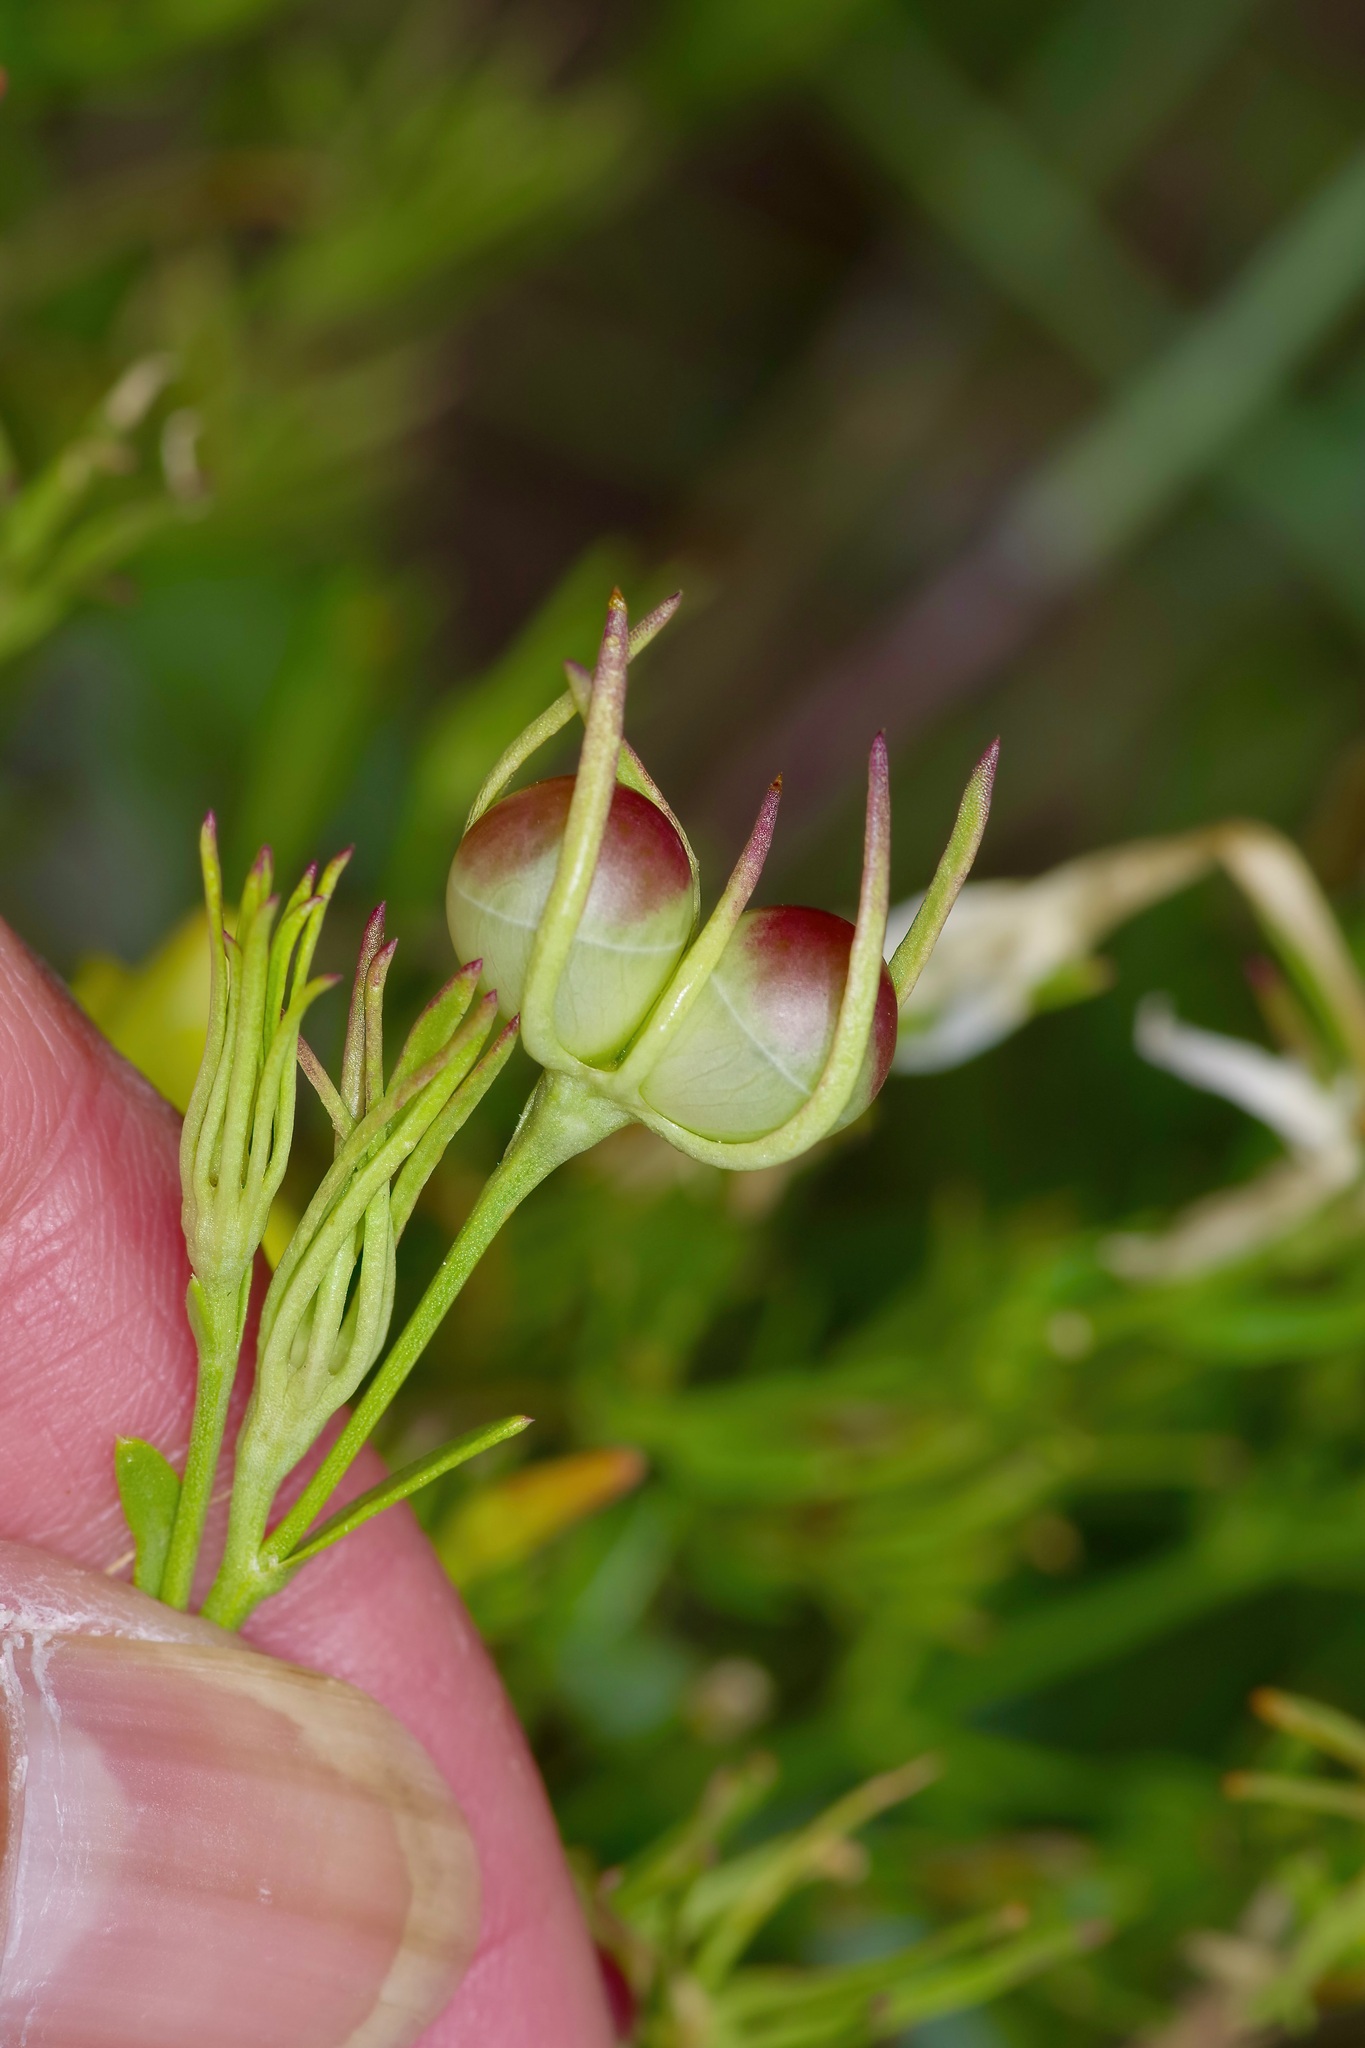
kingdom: Plantae
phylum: Tracheophyta
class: Magnoliopsida
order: Lamiales
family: Oleaceae
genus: Menodora
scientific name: Menodora longiflora
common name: Showy menodora
